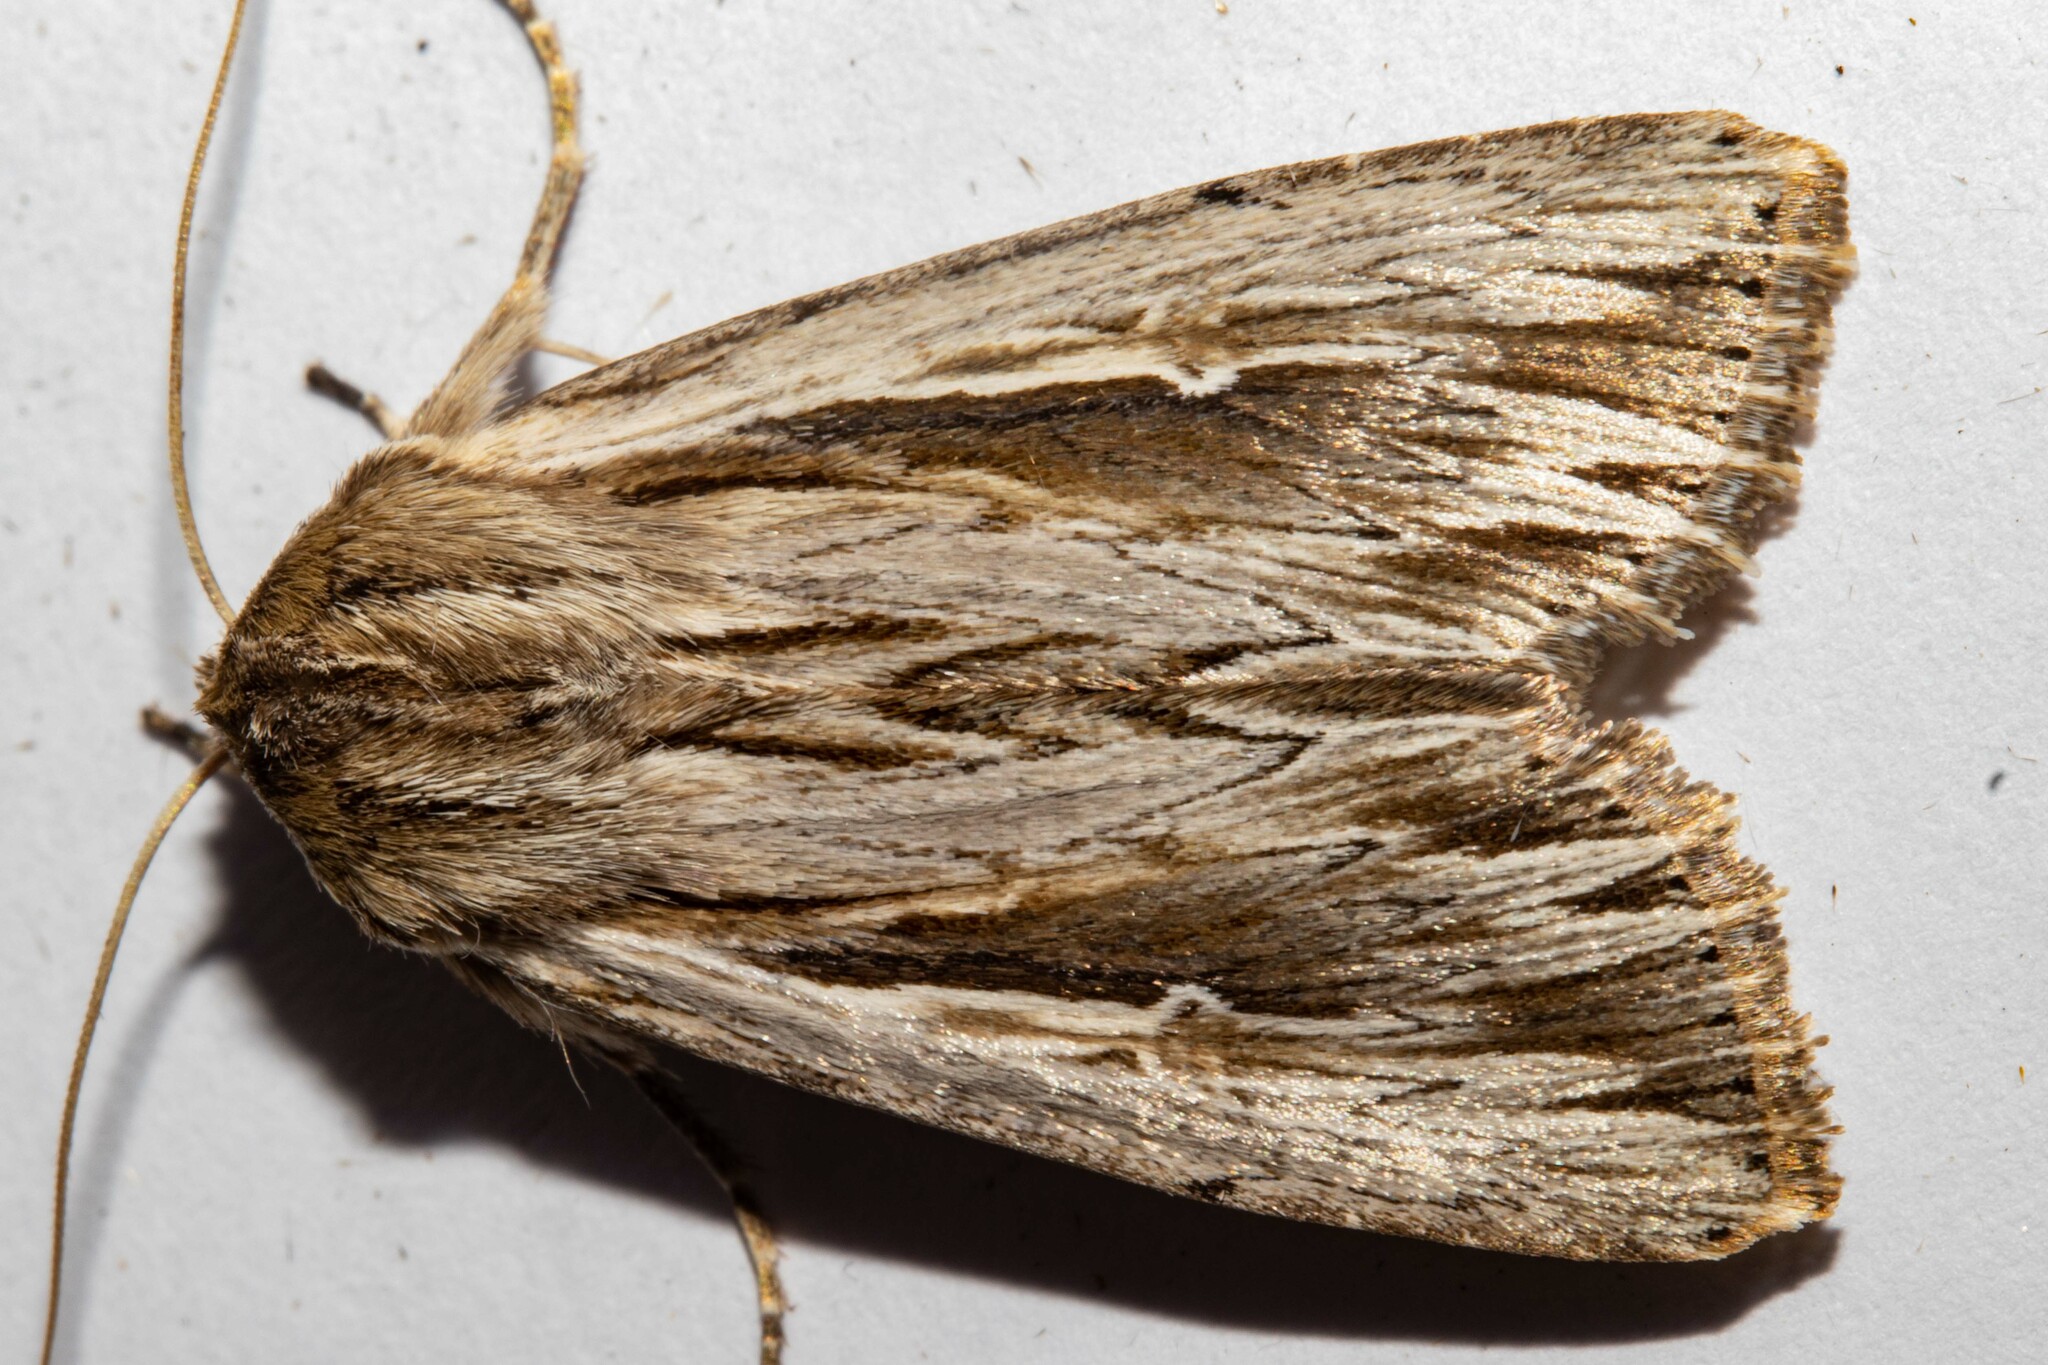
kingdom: Animalia
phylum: Arthropoda
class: Insecta
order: Lepidoptera
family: Noctuidae
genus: Persectania
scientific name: Persectania aversa
